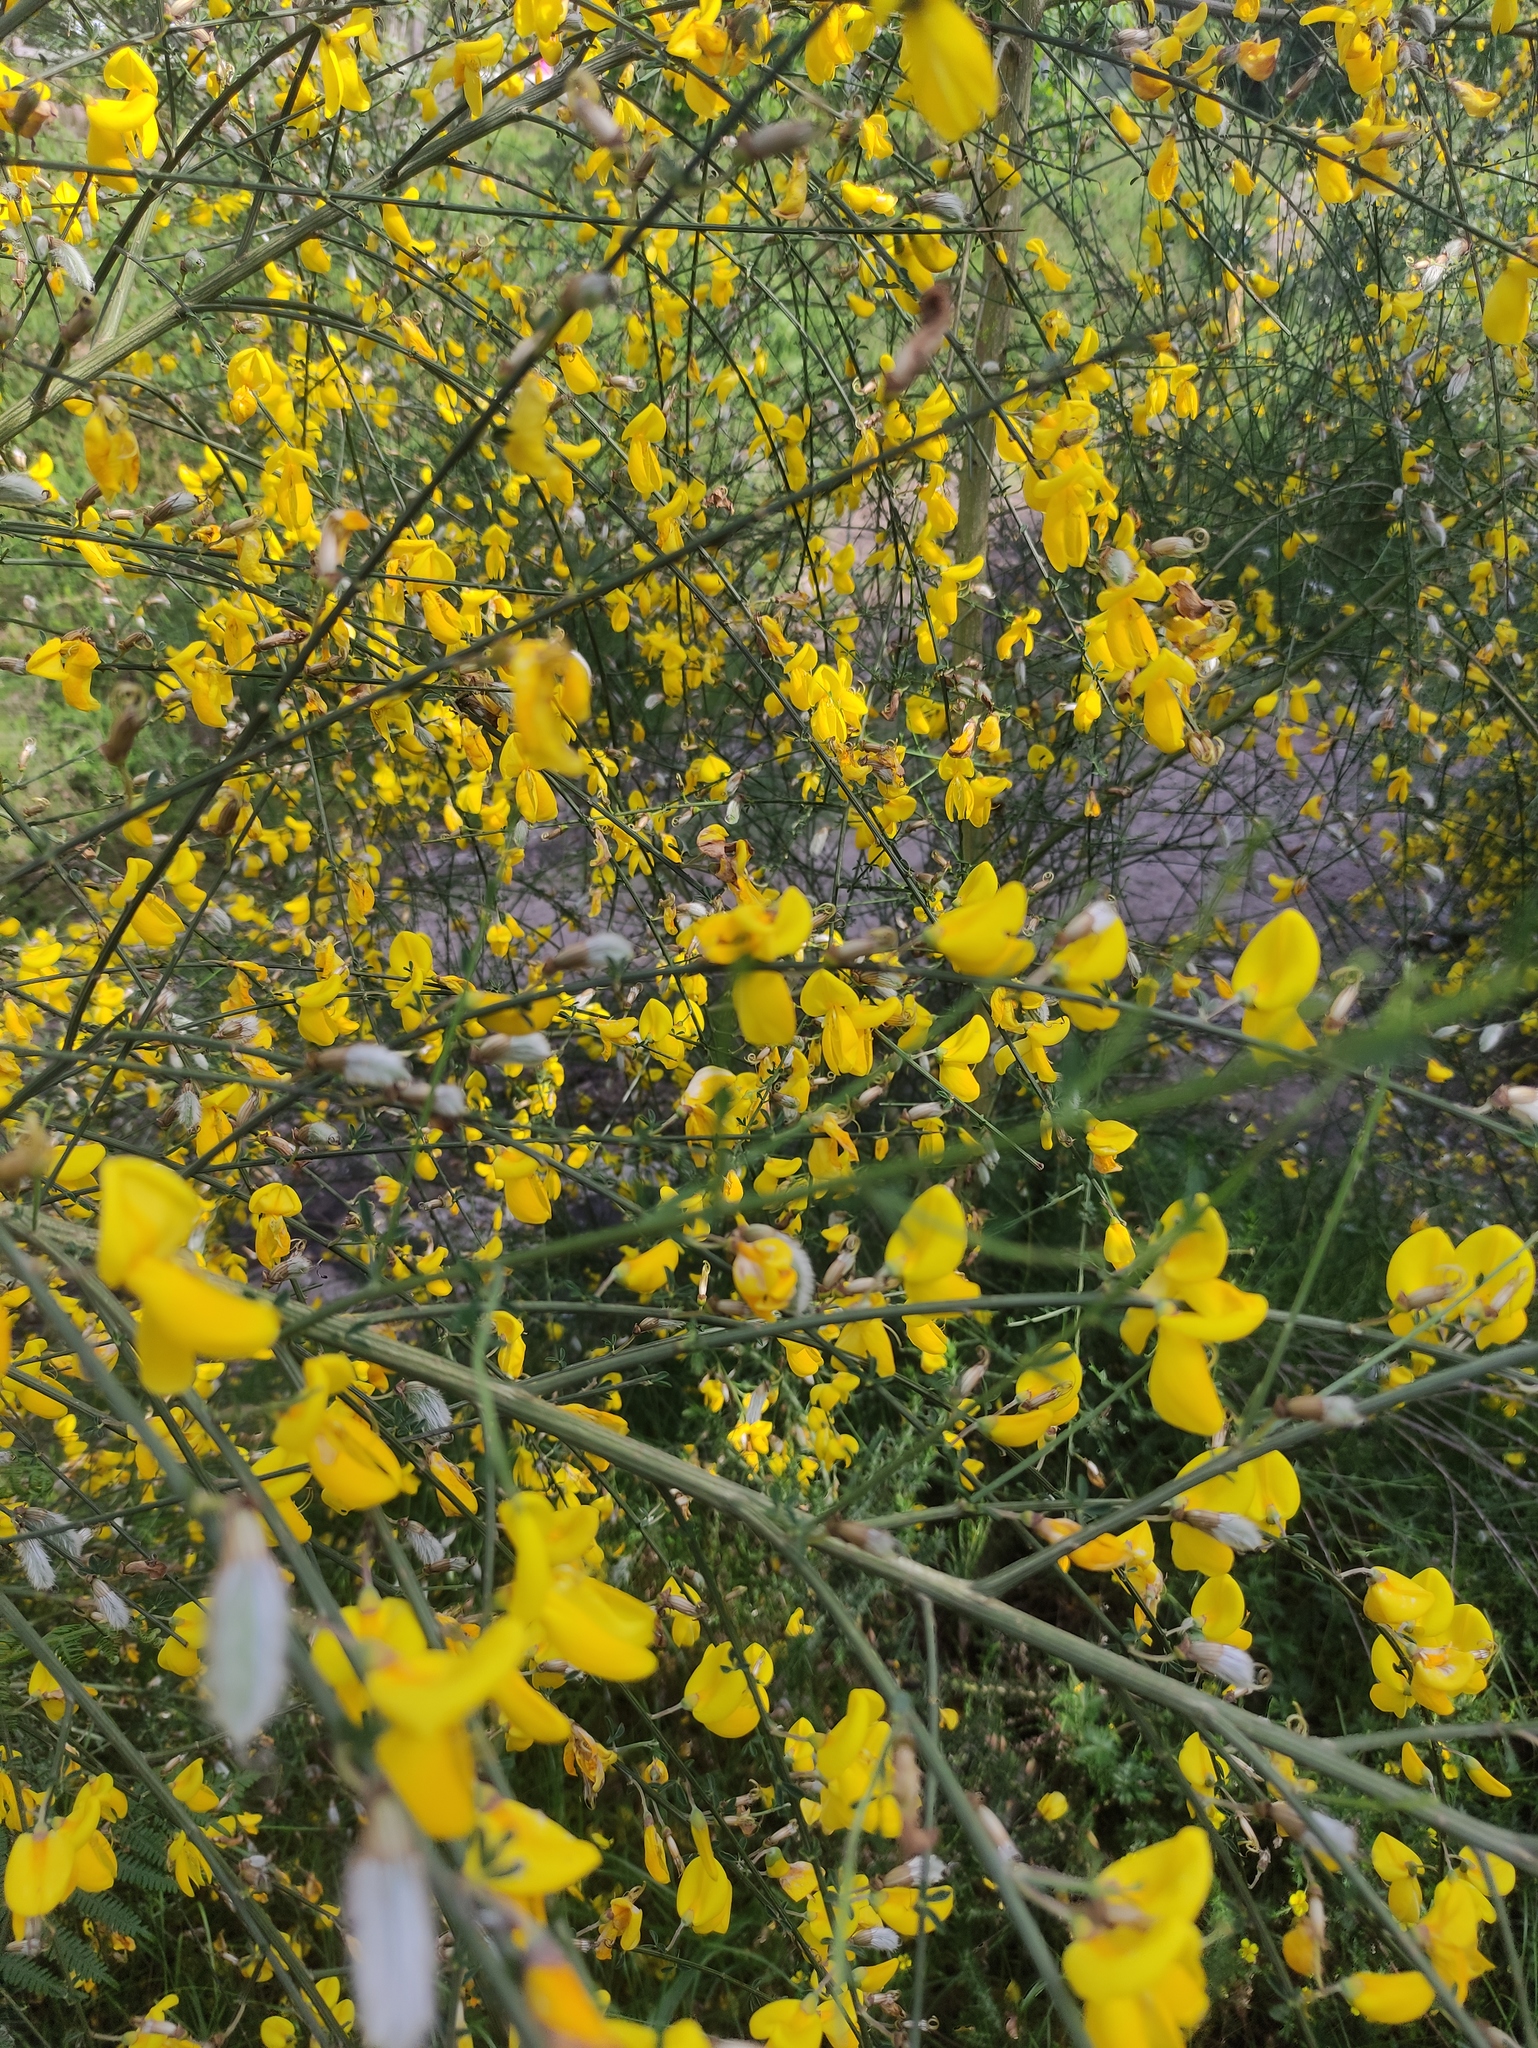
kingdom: Plantae
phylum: Tracheophyta
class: Magnoliopsida
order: Fabales
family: Fabaceae
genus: Cytisus
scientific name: Cytisus striatus
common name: Hairy-fruited broom
